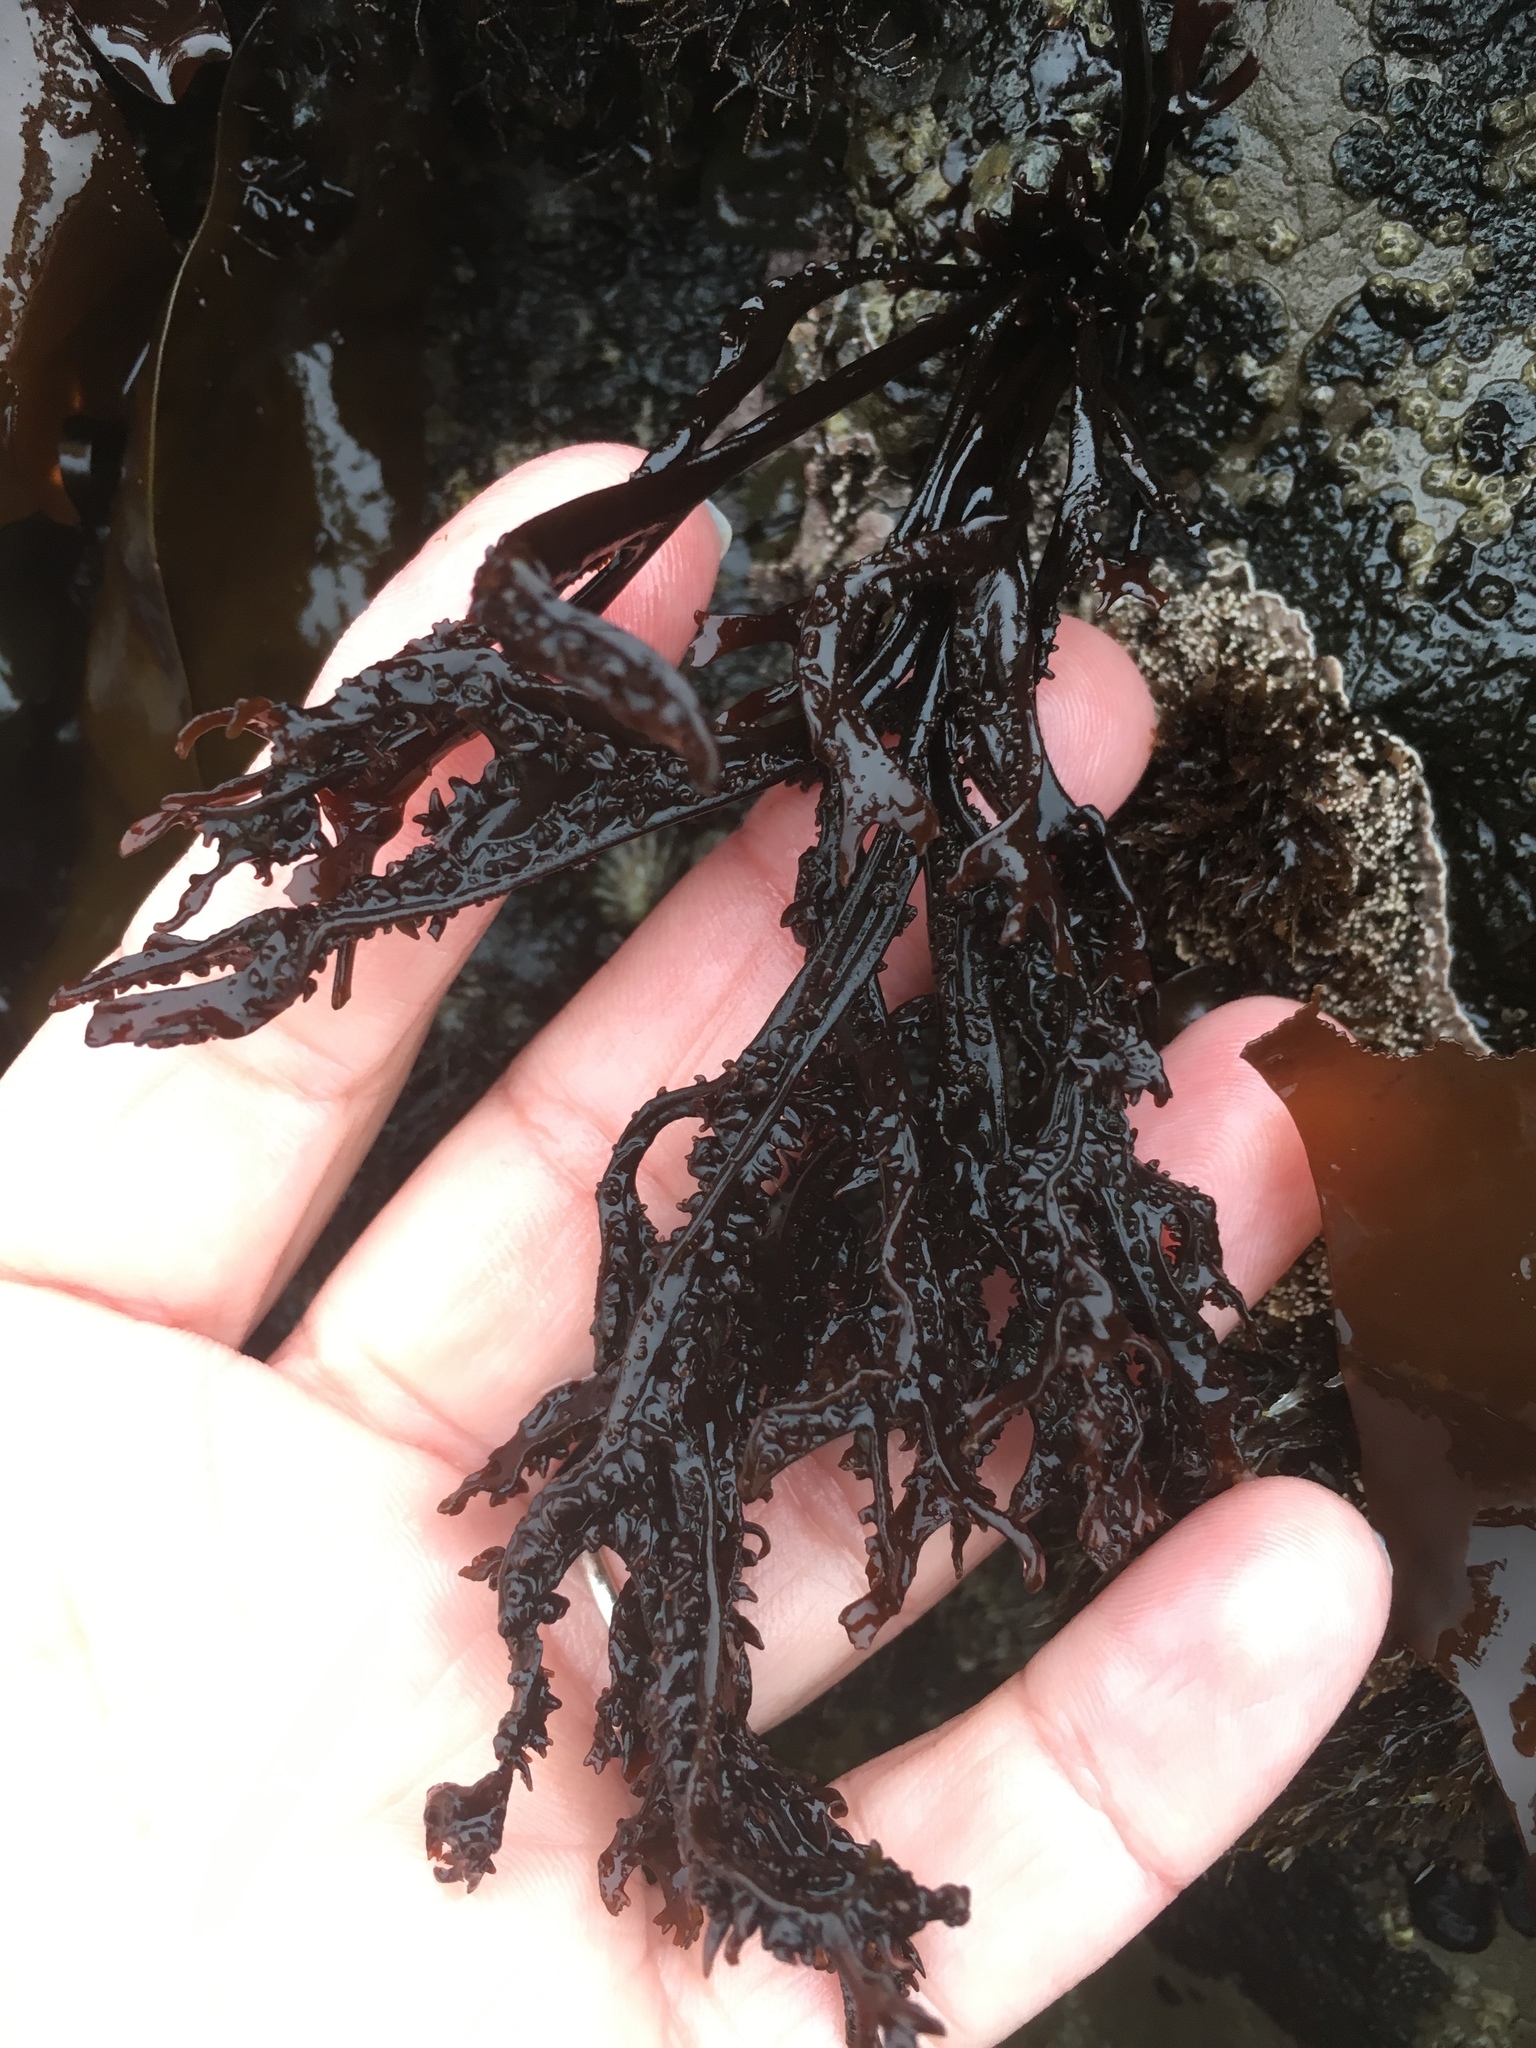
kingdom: Plantae
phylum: Rhodophyta
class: Florideophyceae
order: Gigartinales
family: Phyllophoraceae
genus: Mastocarpus
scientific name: Mastocarpus papillatus
